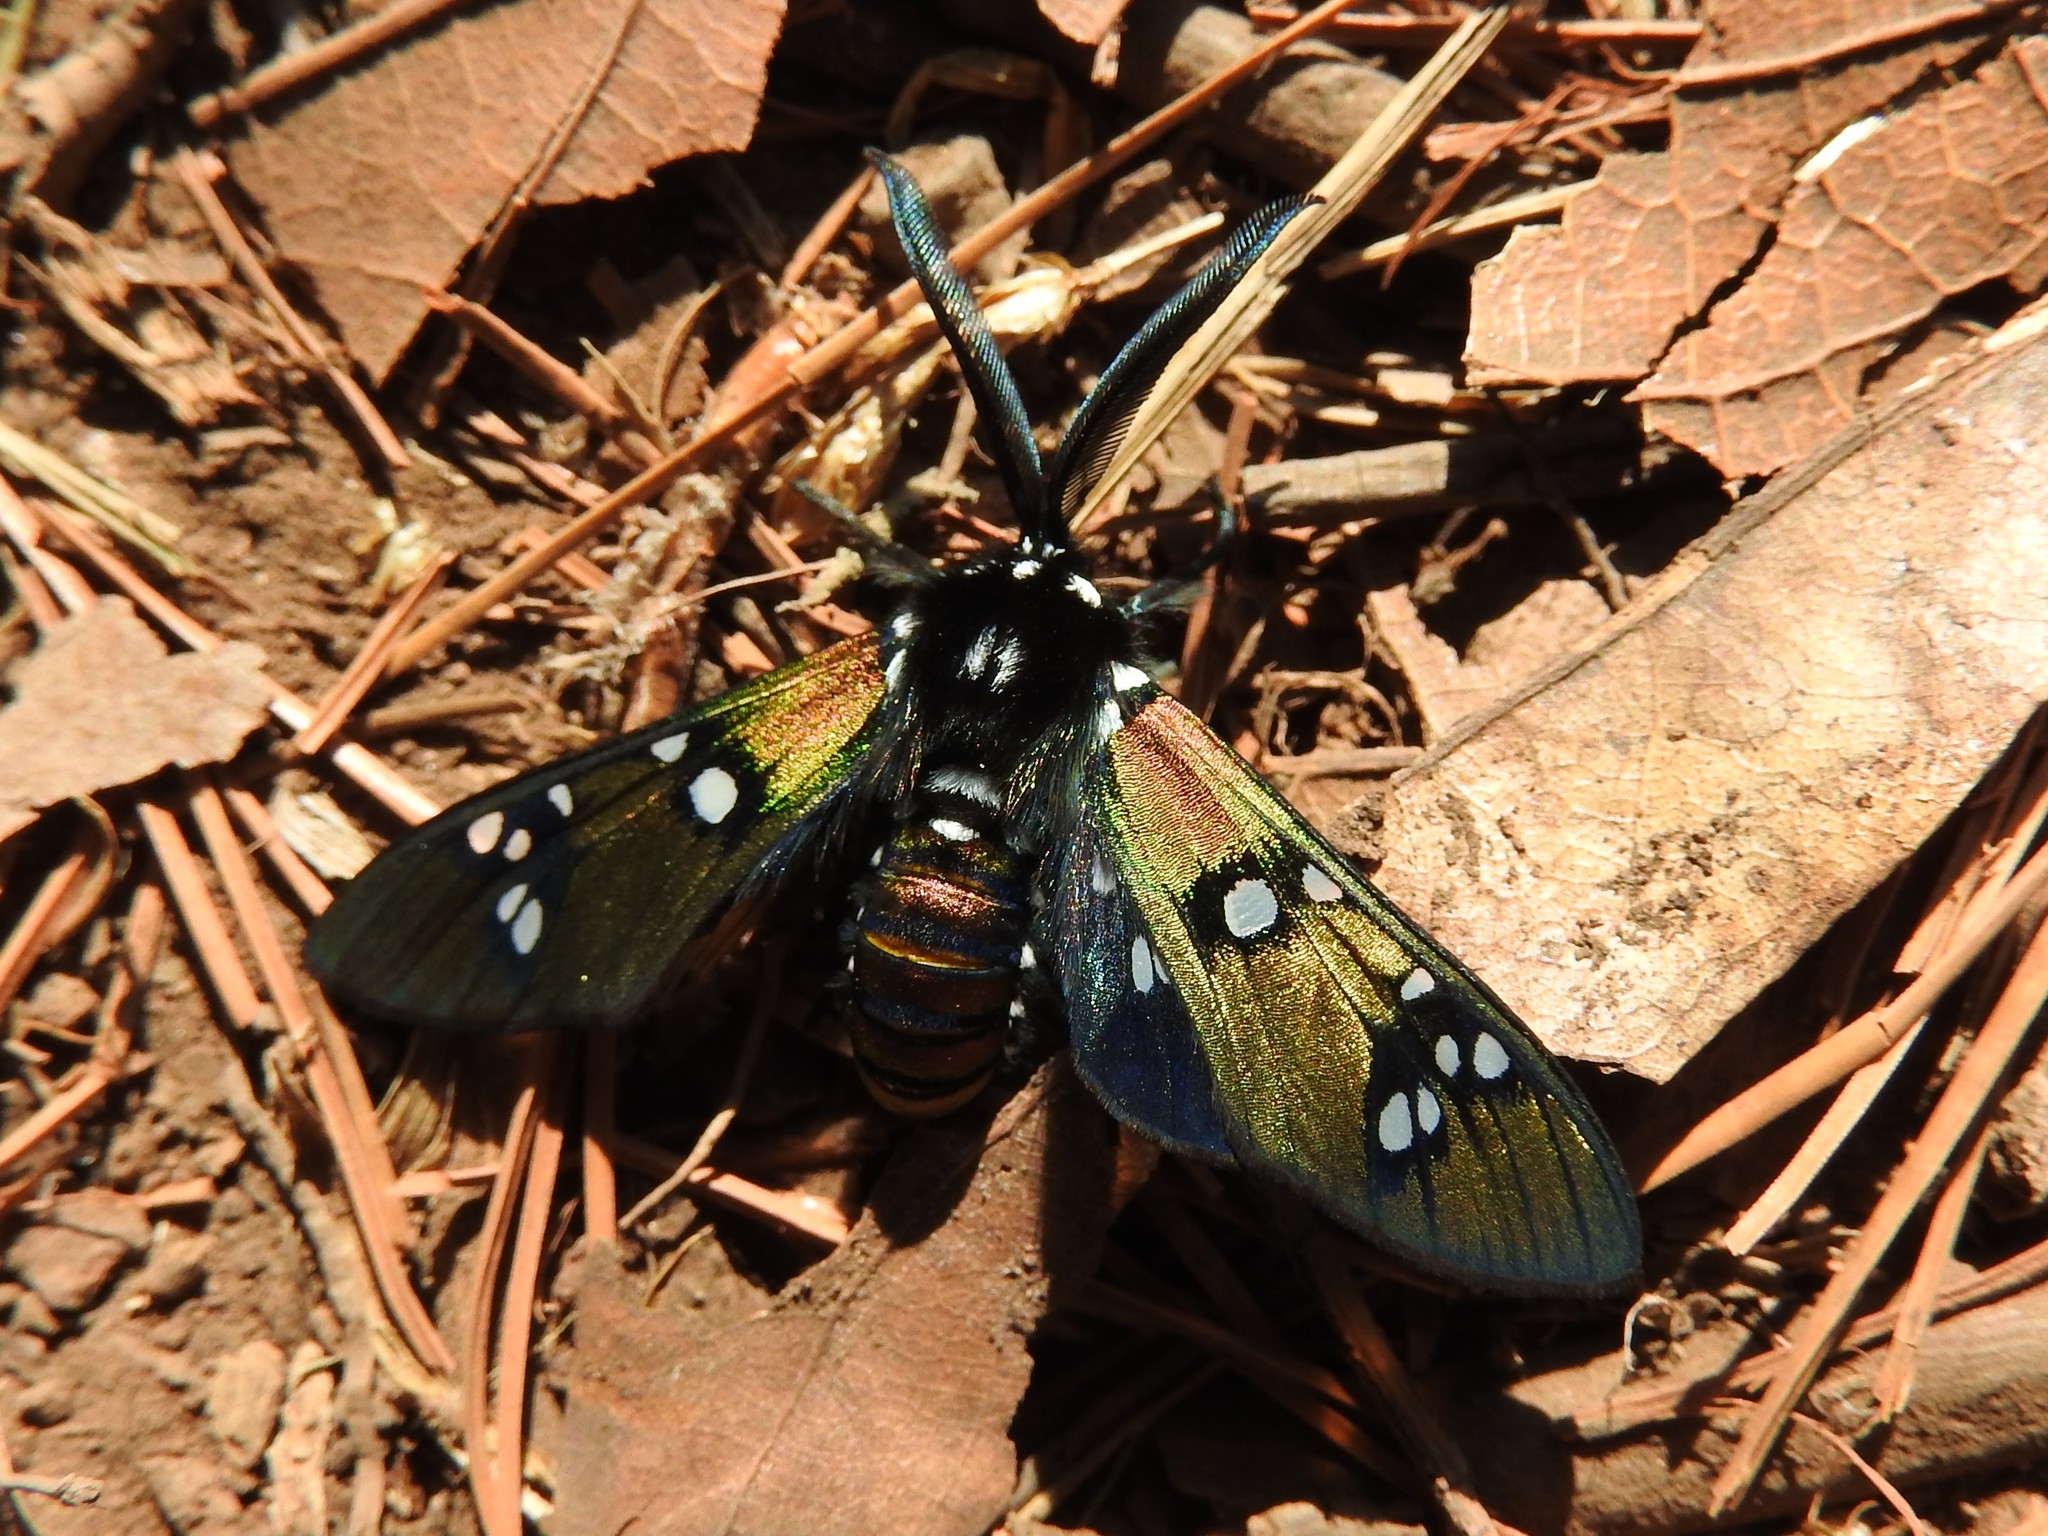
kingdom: Animalia
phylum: Arthropoda
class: Insecta
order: Lepidoptera
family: Erebidae
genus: Chrysocale
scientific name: Chrysocale principalis
